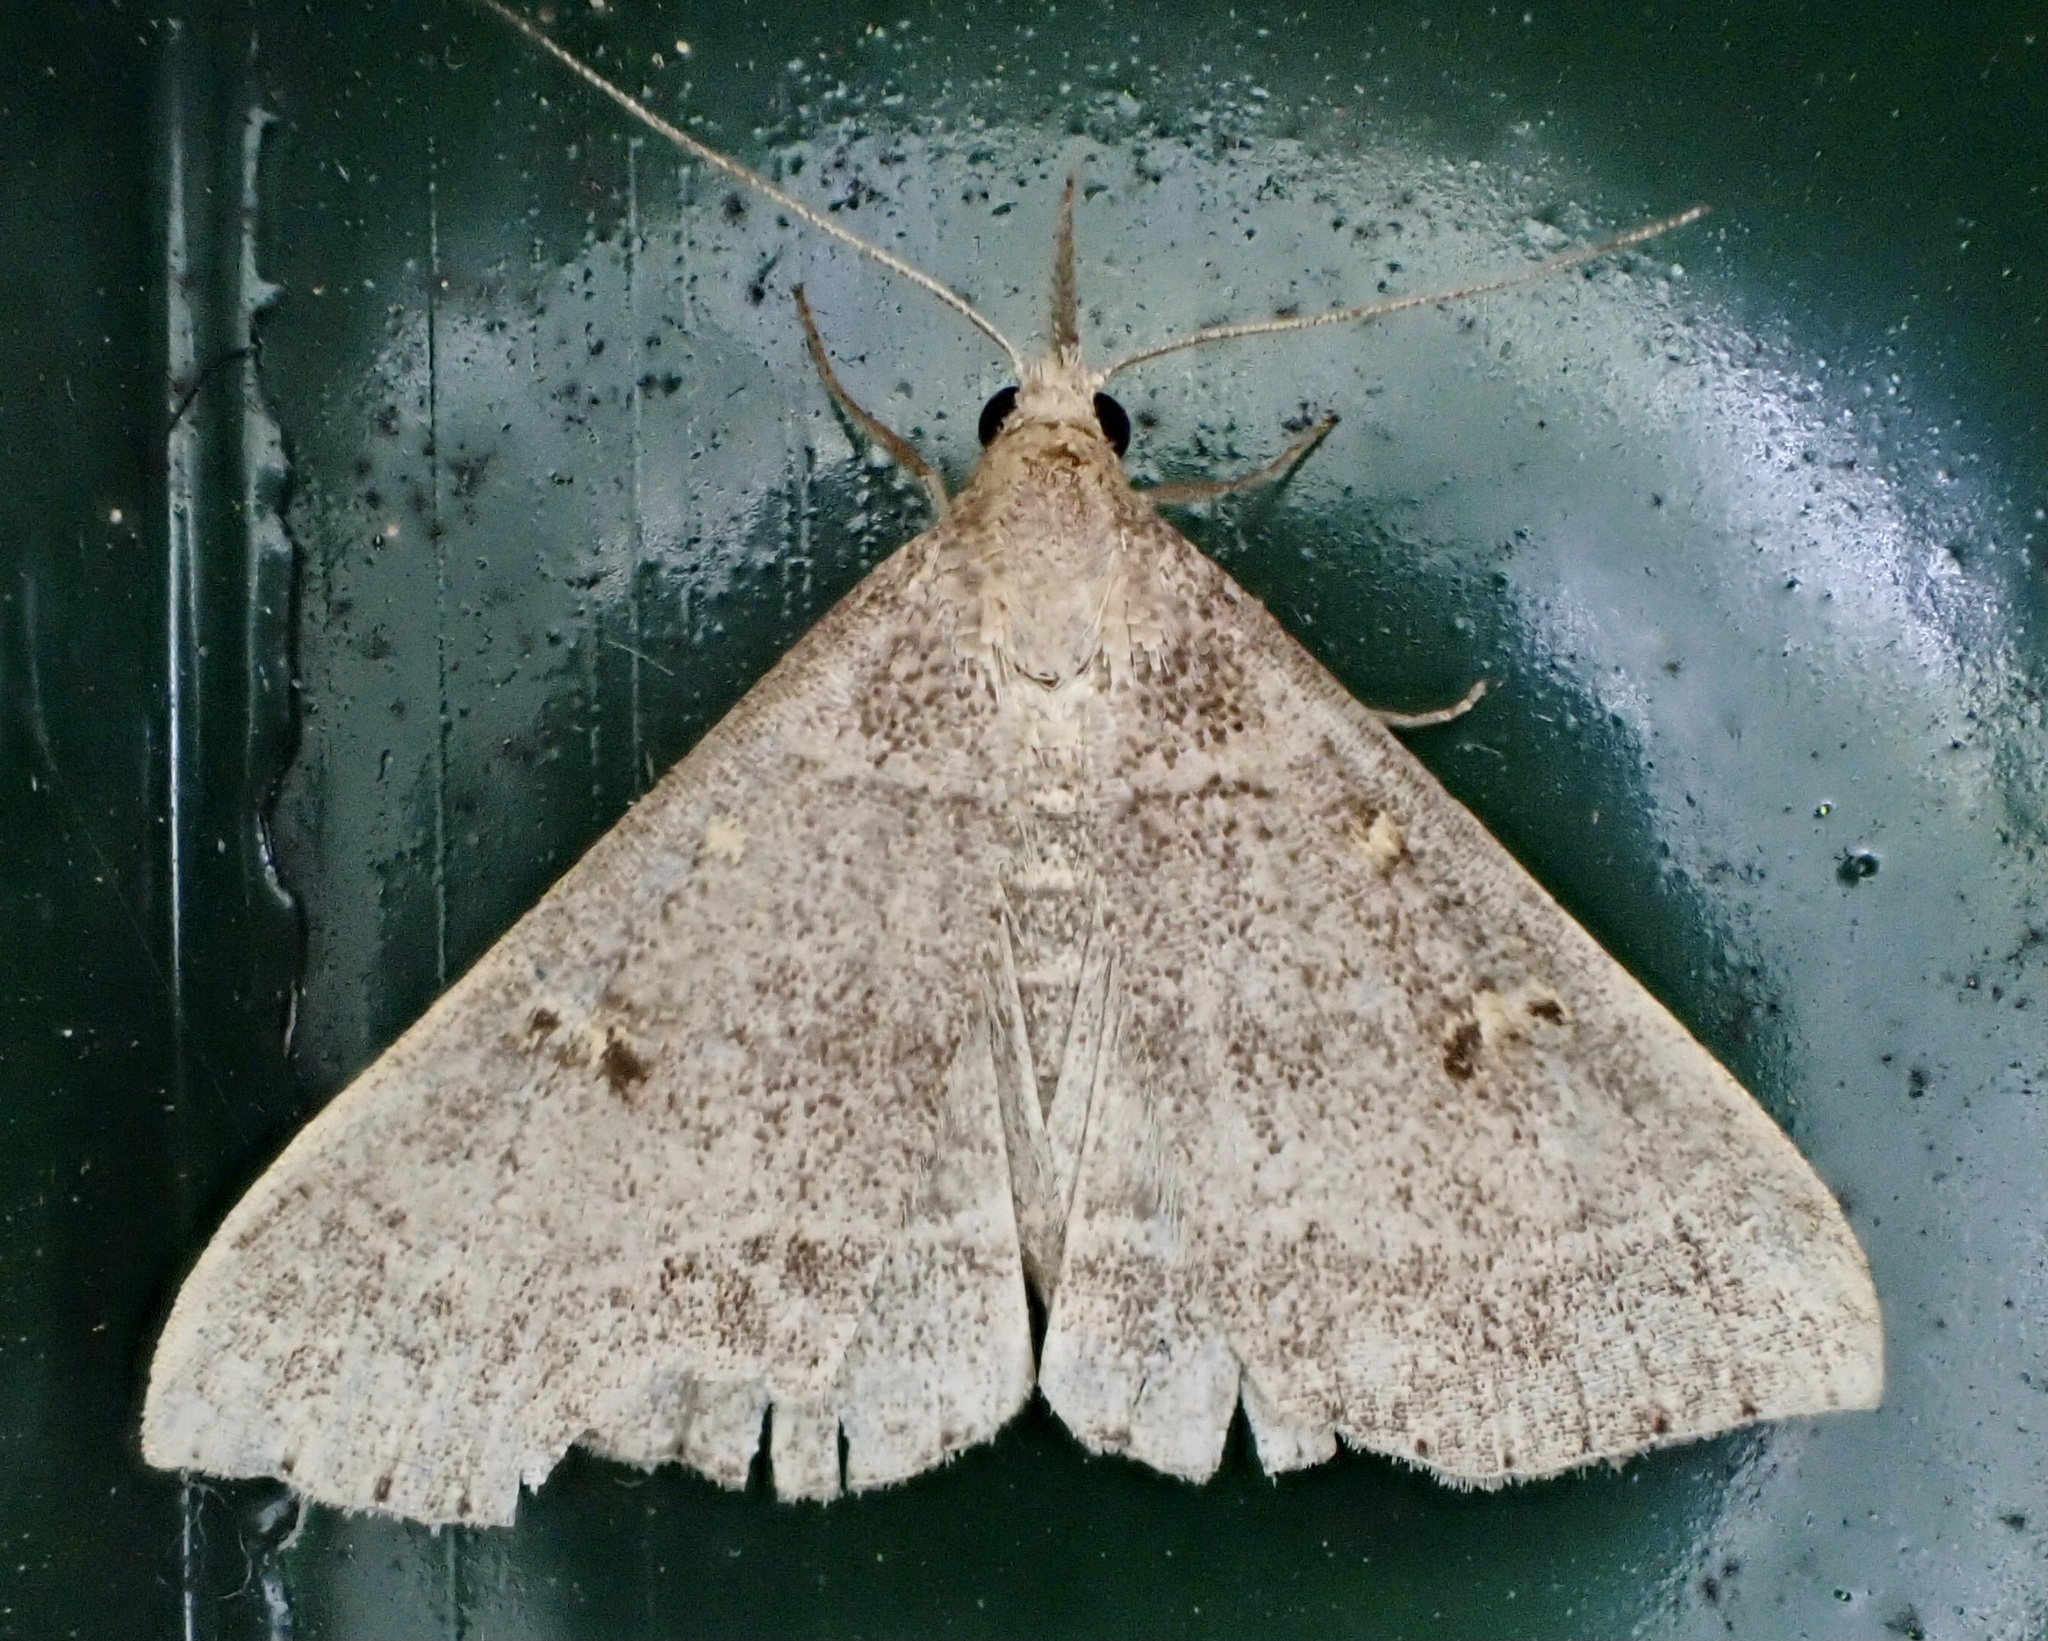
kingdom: Animalia
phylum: Arthropoda
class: Insecta
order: Lepidoptera
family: Erebidae
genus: Renia
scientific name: Renia flavipunctalis
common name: Yellow-spotted renia moth
